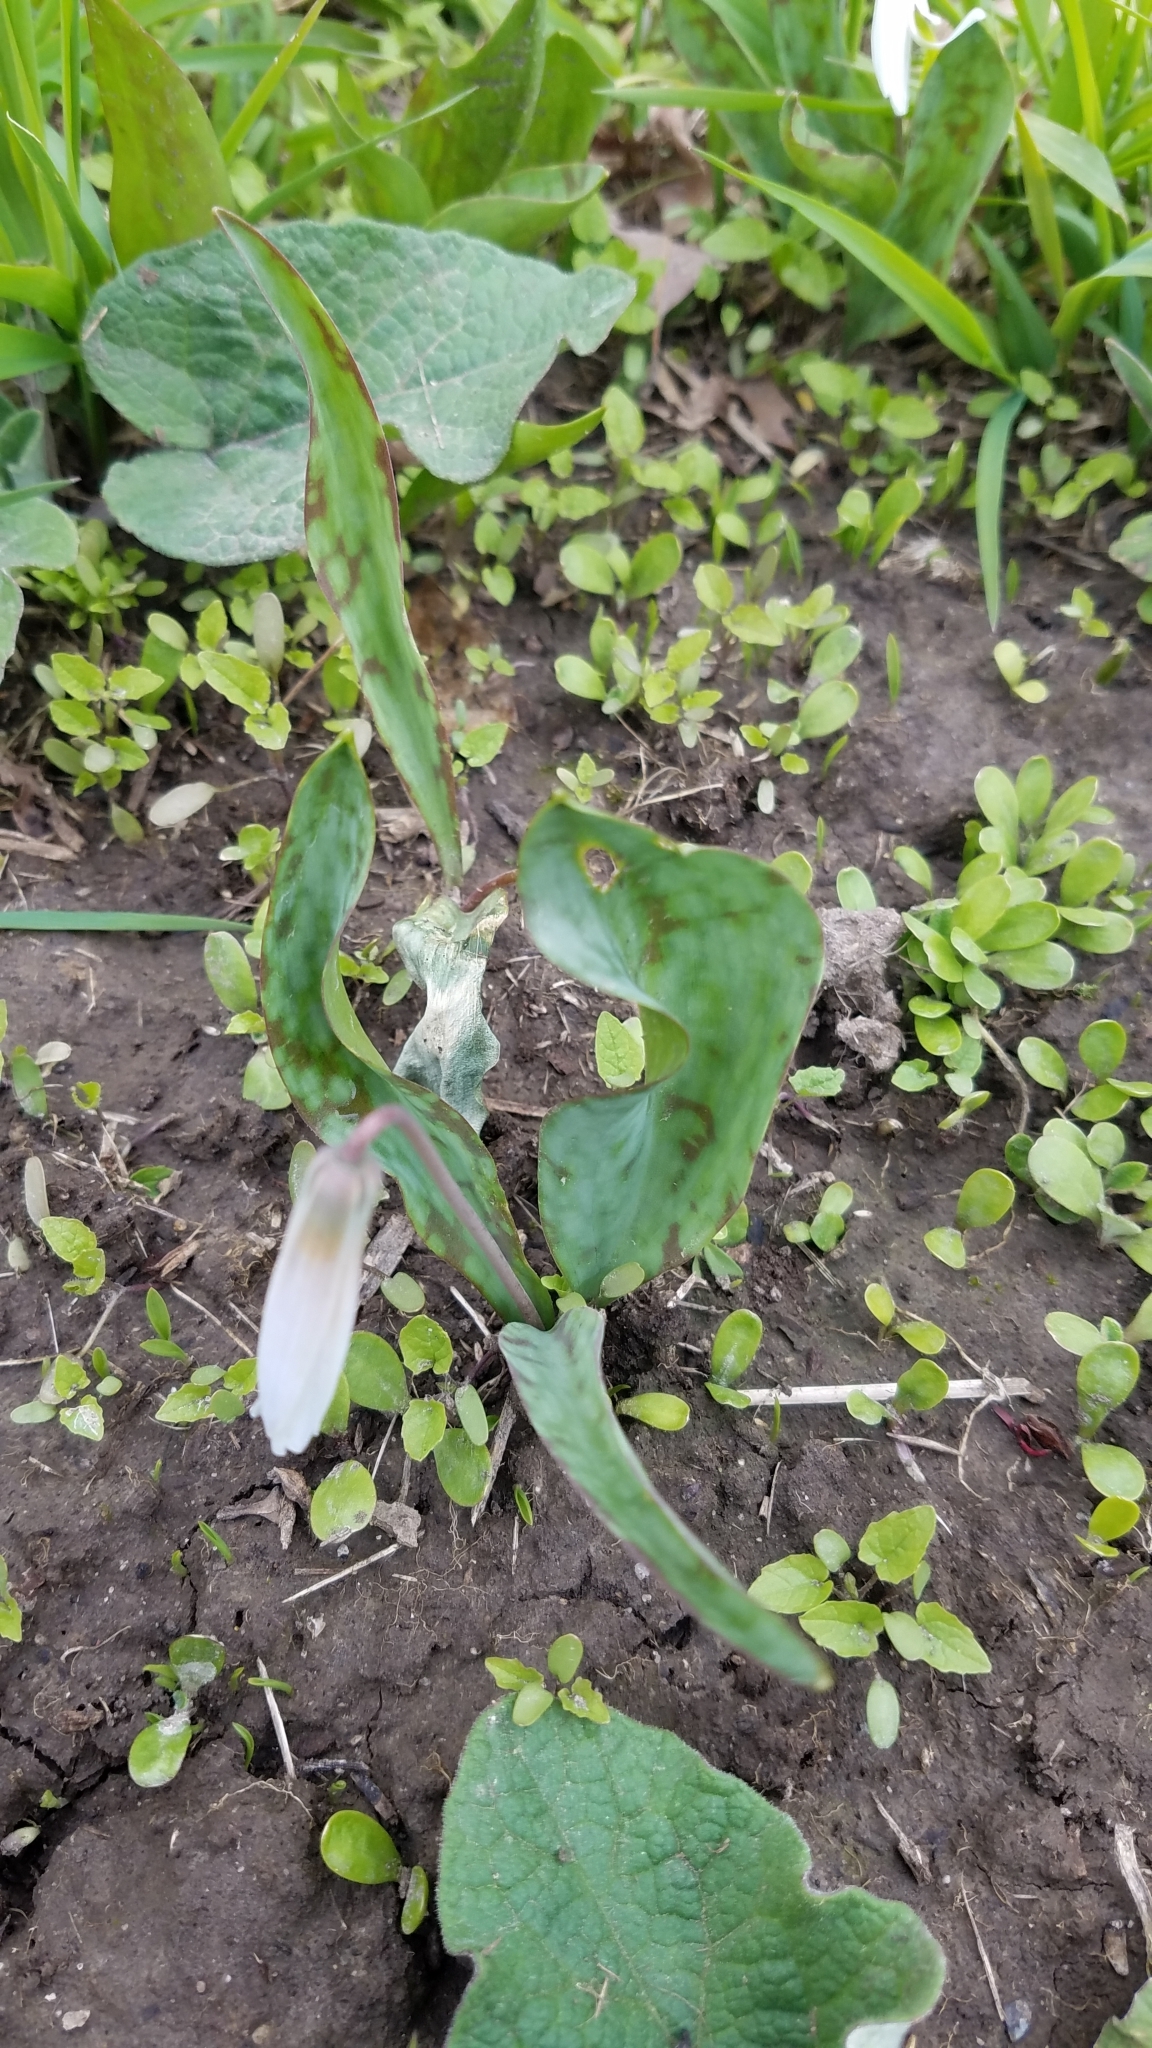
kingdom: Plantae
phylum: Tracheophyta
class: Liliopsida
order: Liliales
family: Liliaceae
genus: Erythronium
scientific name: Erythronium albidum
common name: White trout-lily
